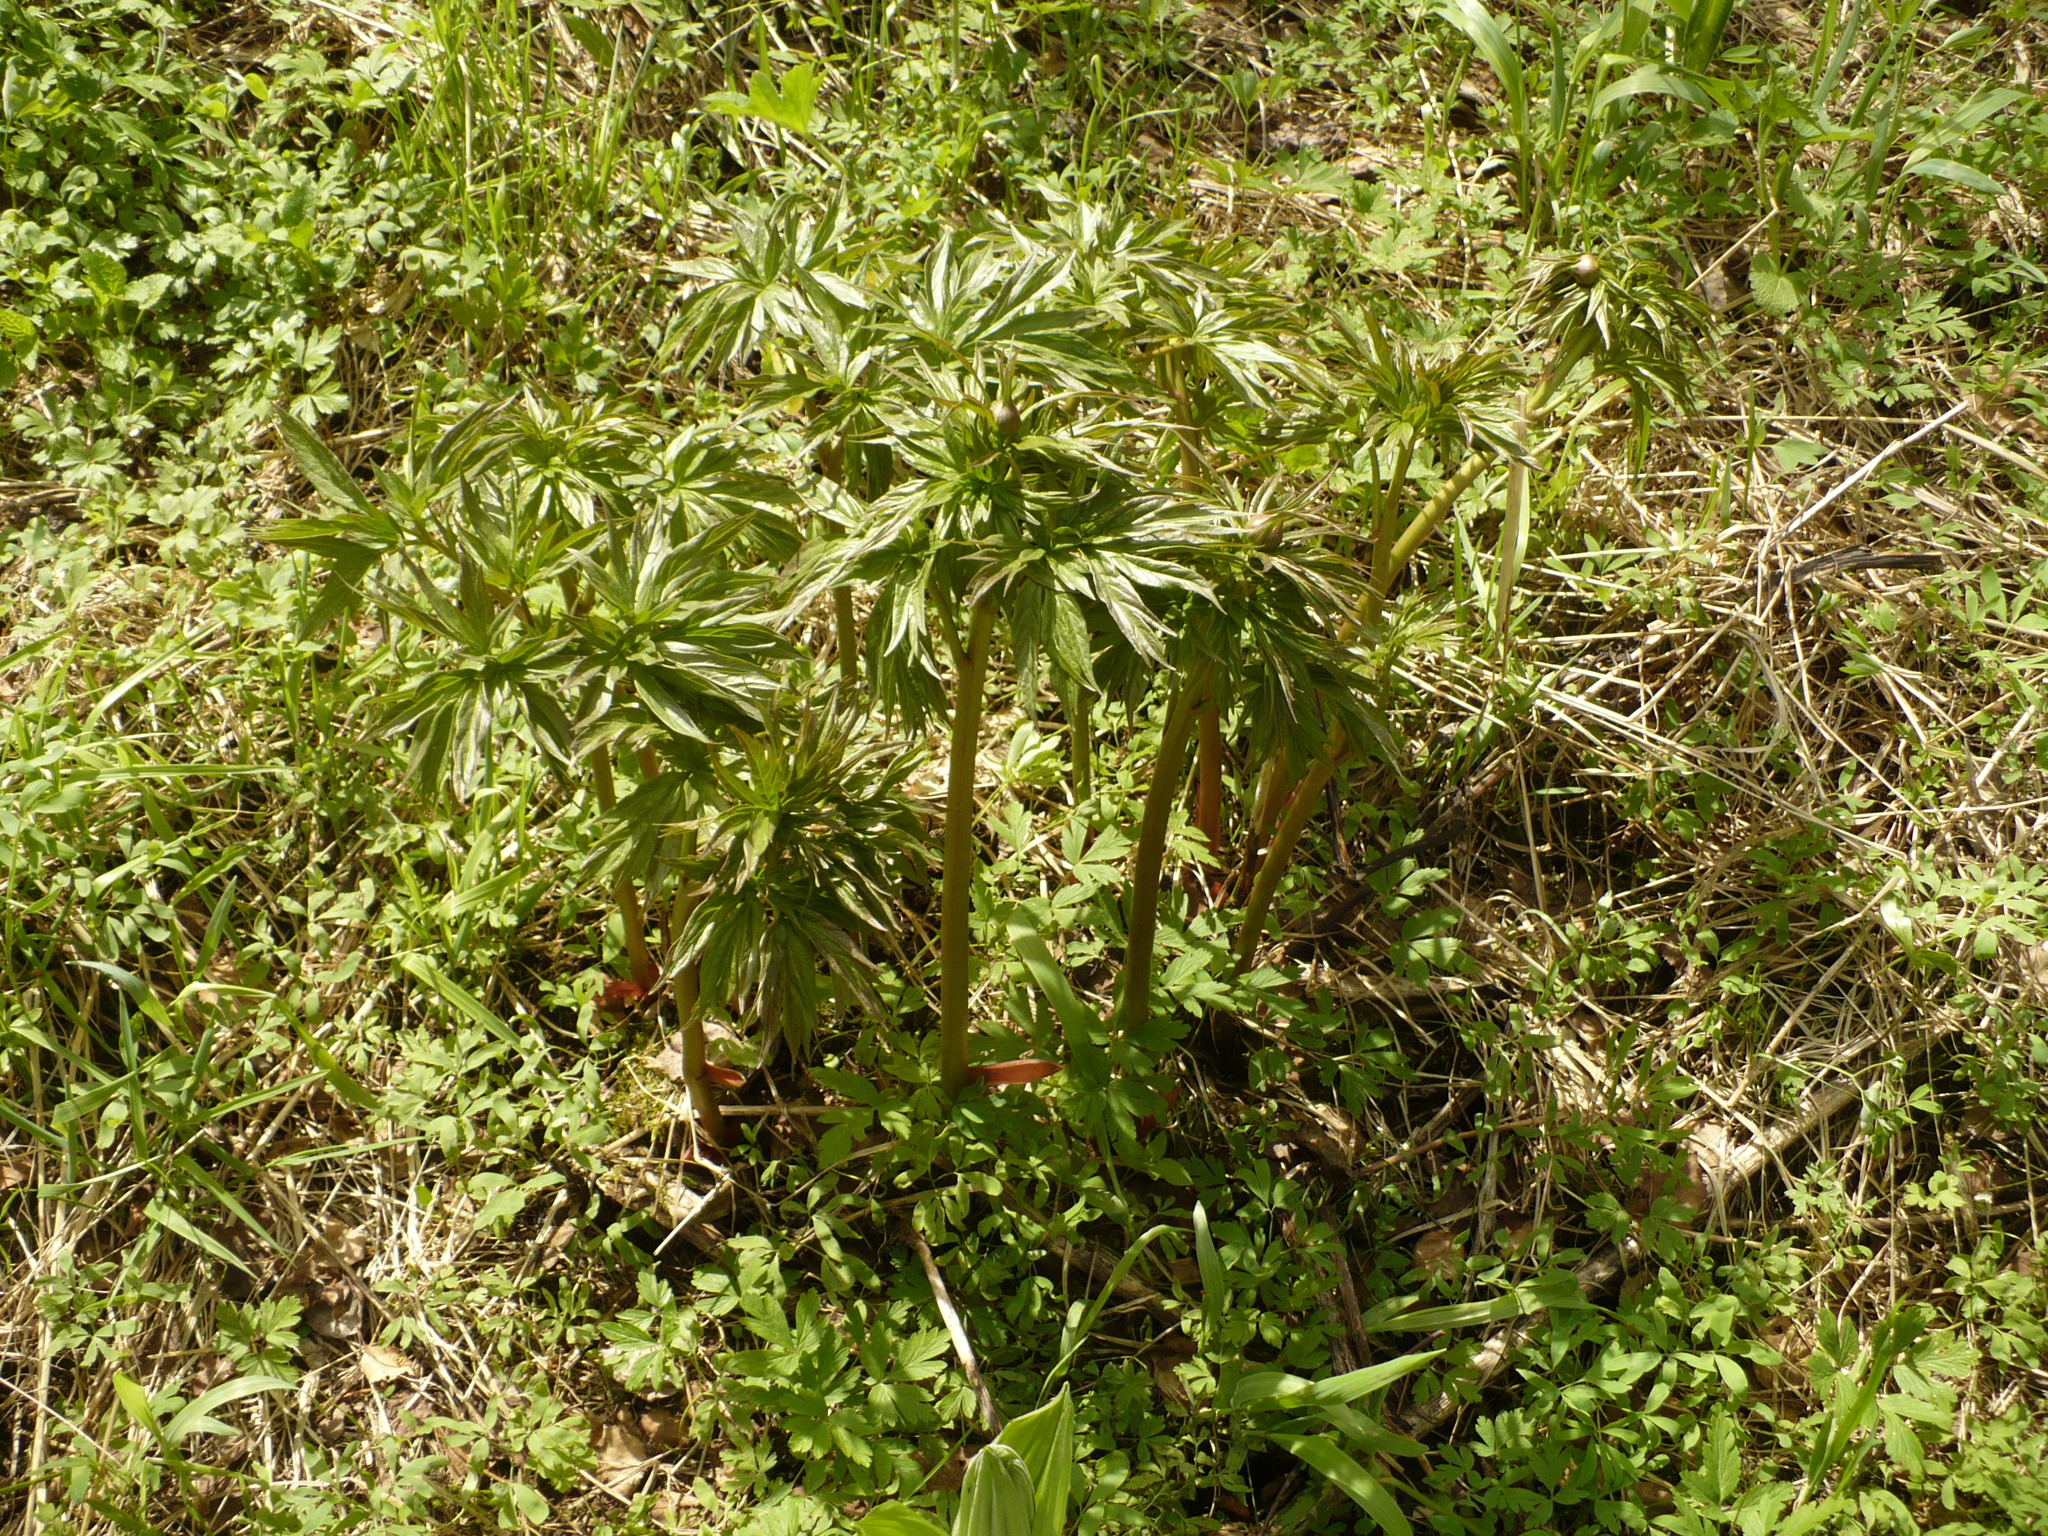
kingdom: Plantae
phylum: Tracheophyta
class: Magnoliopsida
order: Saxifragales
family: Paeoniaceae
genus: Paeonia
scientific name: Paeonia anomala
